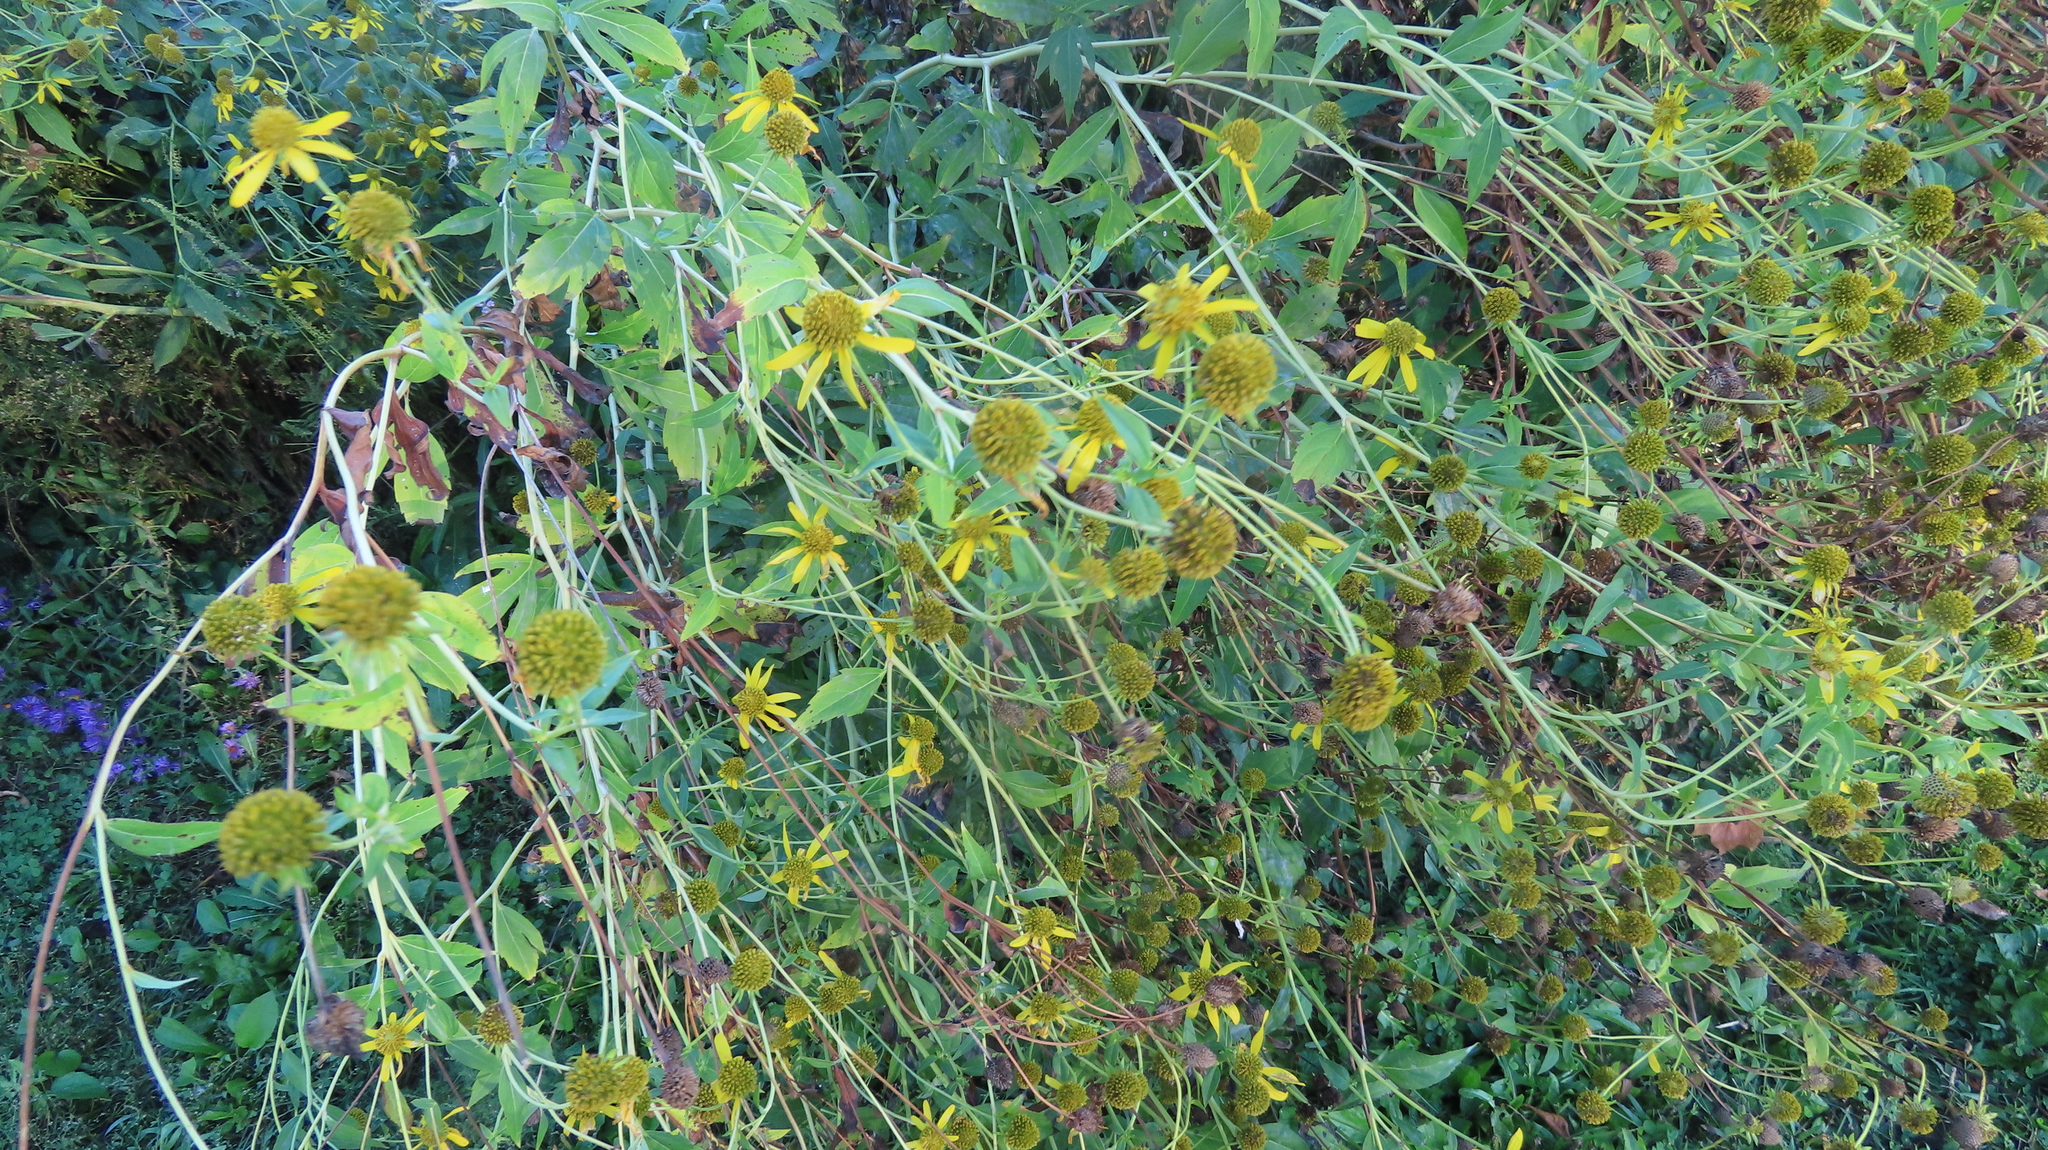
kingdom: Plantae
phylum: Tracheophyta
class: Magnoliopsida
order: Asterales
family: Asteraceae
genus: Rudbeckia
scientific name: Rudbeckia laciniata
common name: Coneflower
